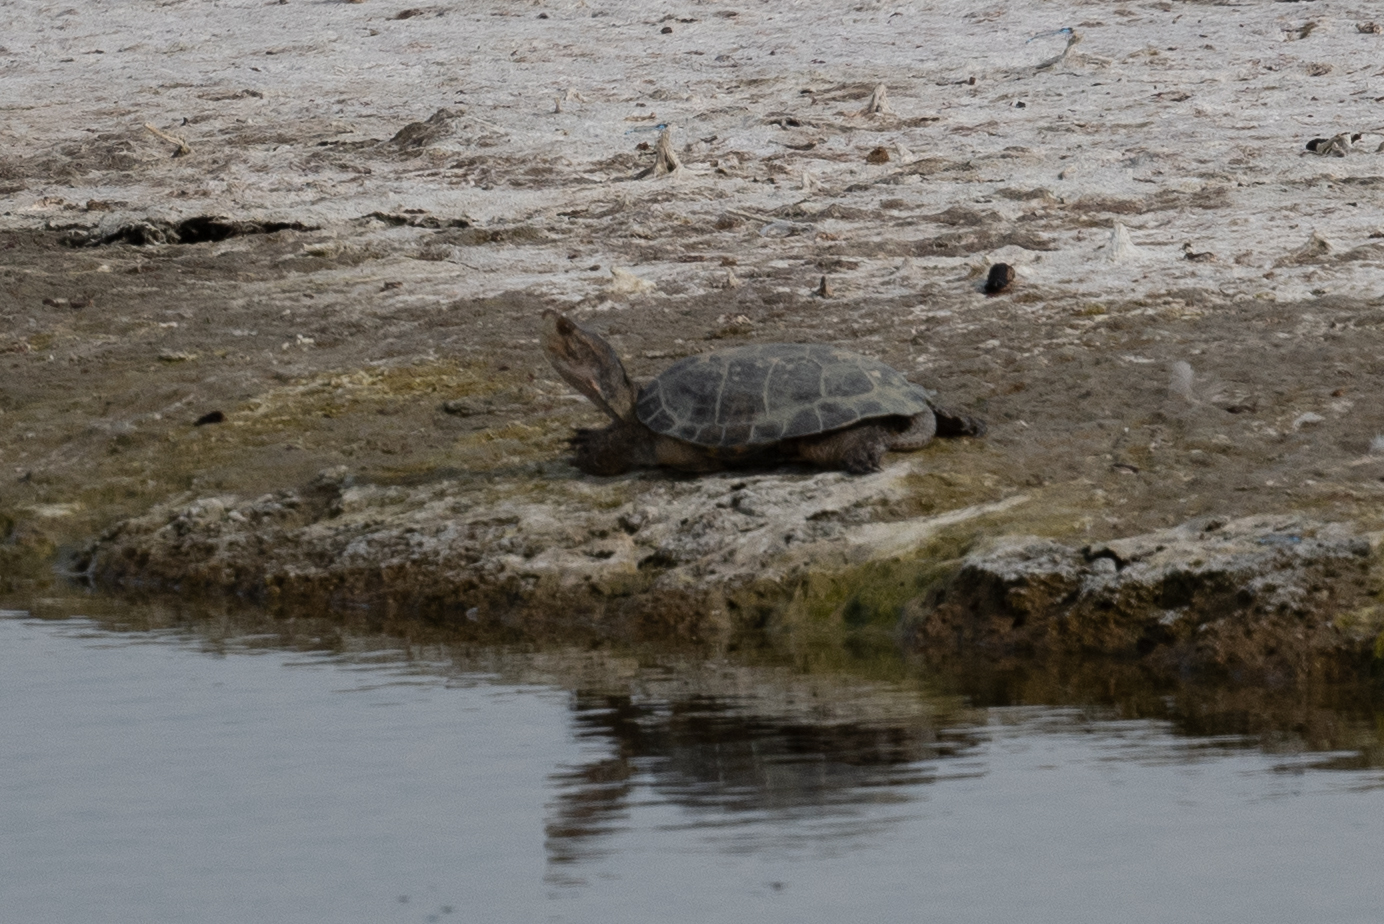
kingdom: Animalia
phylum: Chordata
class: Testudines
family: Emydidae
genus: Actinemys
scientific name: Actinemys marmorata
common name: Western pond turtle
